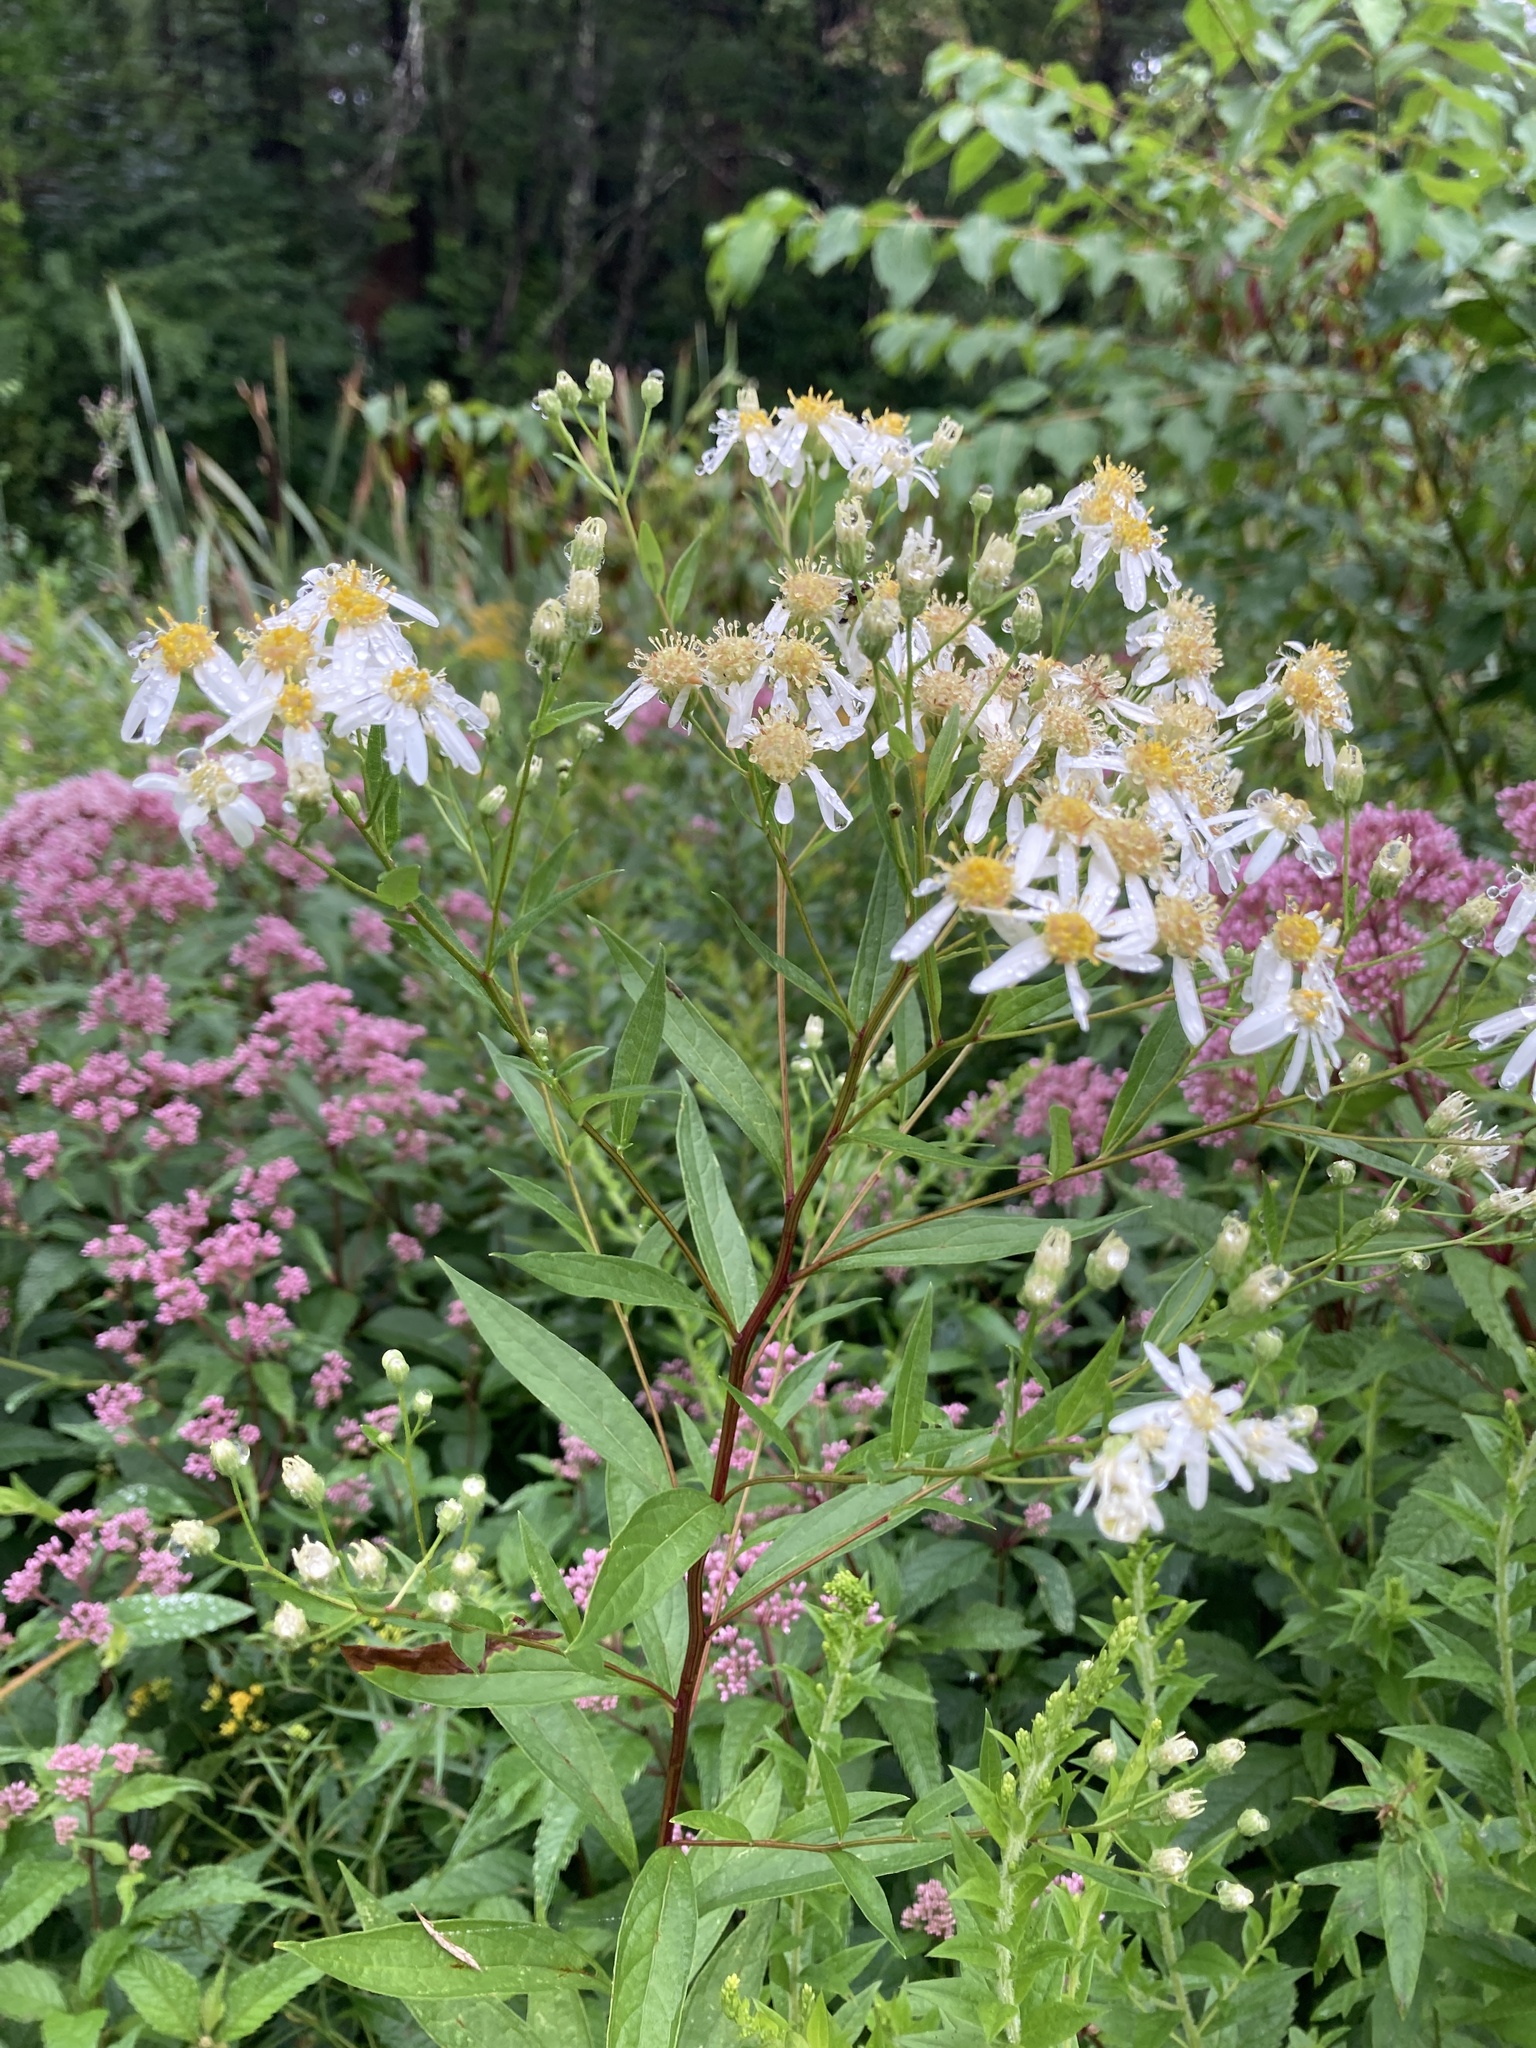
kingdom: Plantae
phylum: Tracheophyta
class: Magnoliopsida
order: Asterales
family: Asteraceae
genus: Doellingeria
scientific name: Doellingeria umbellata
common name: Flat-top white aster
